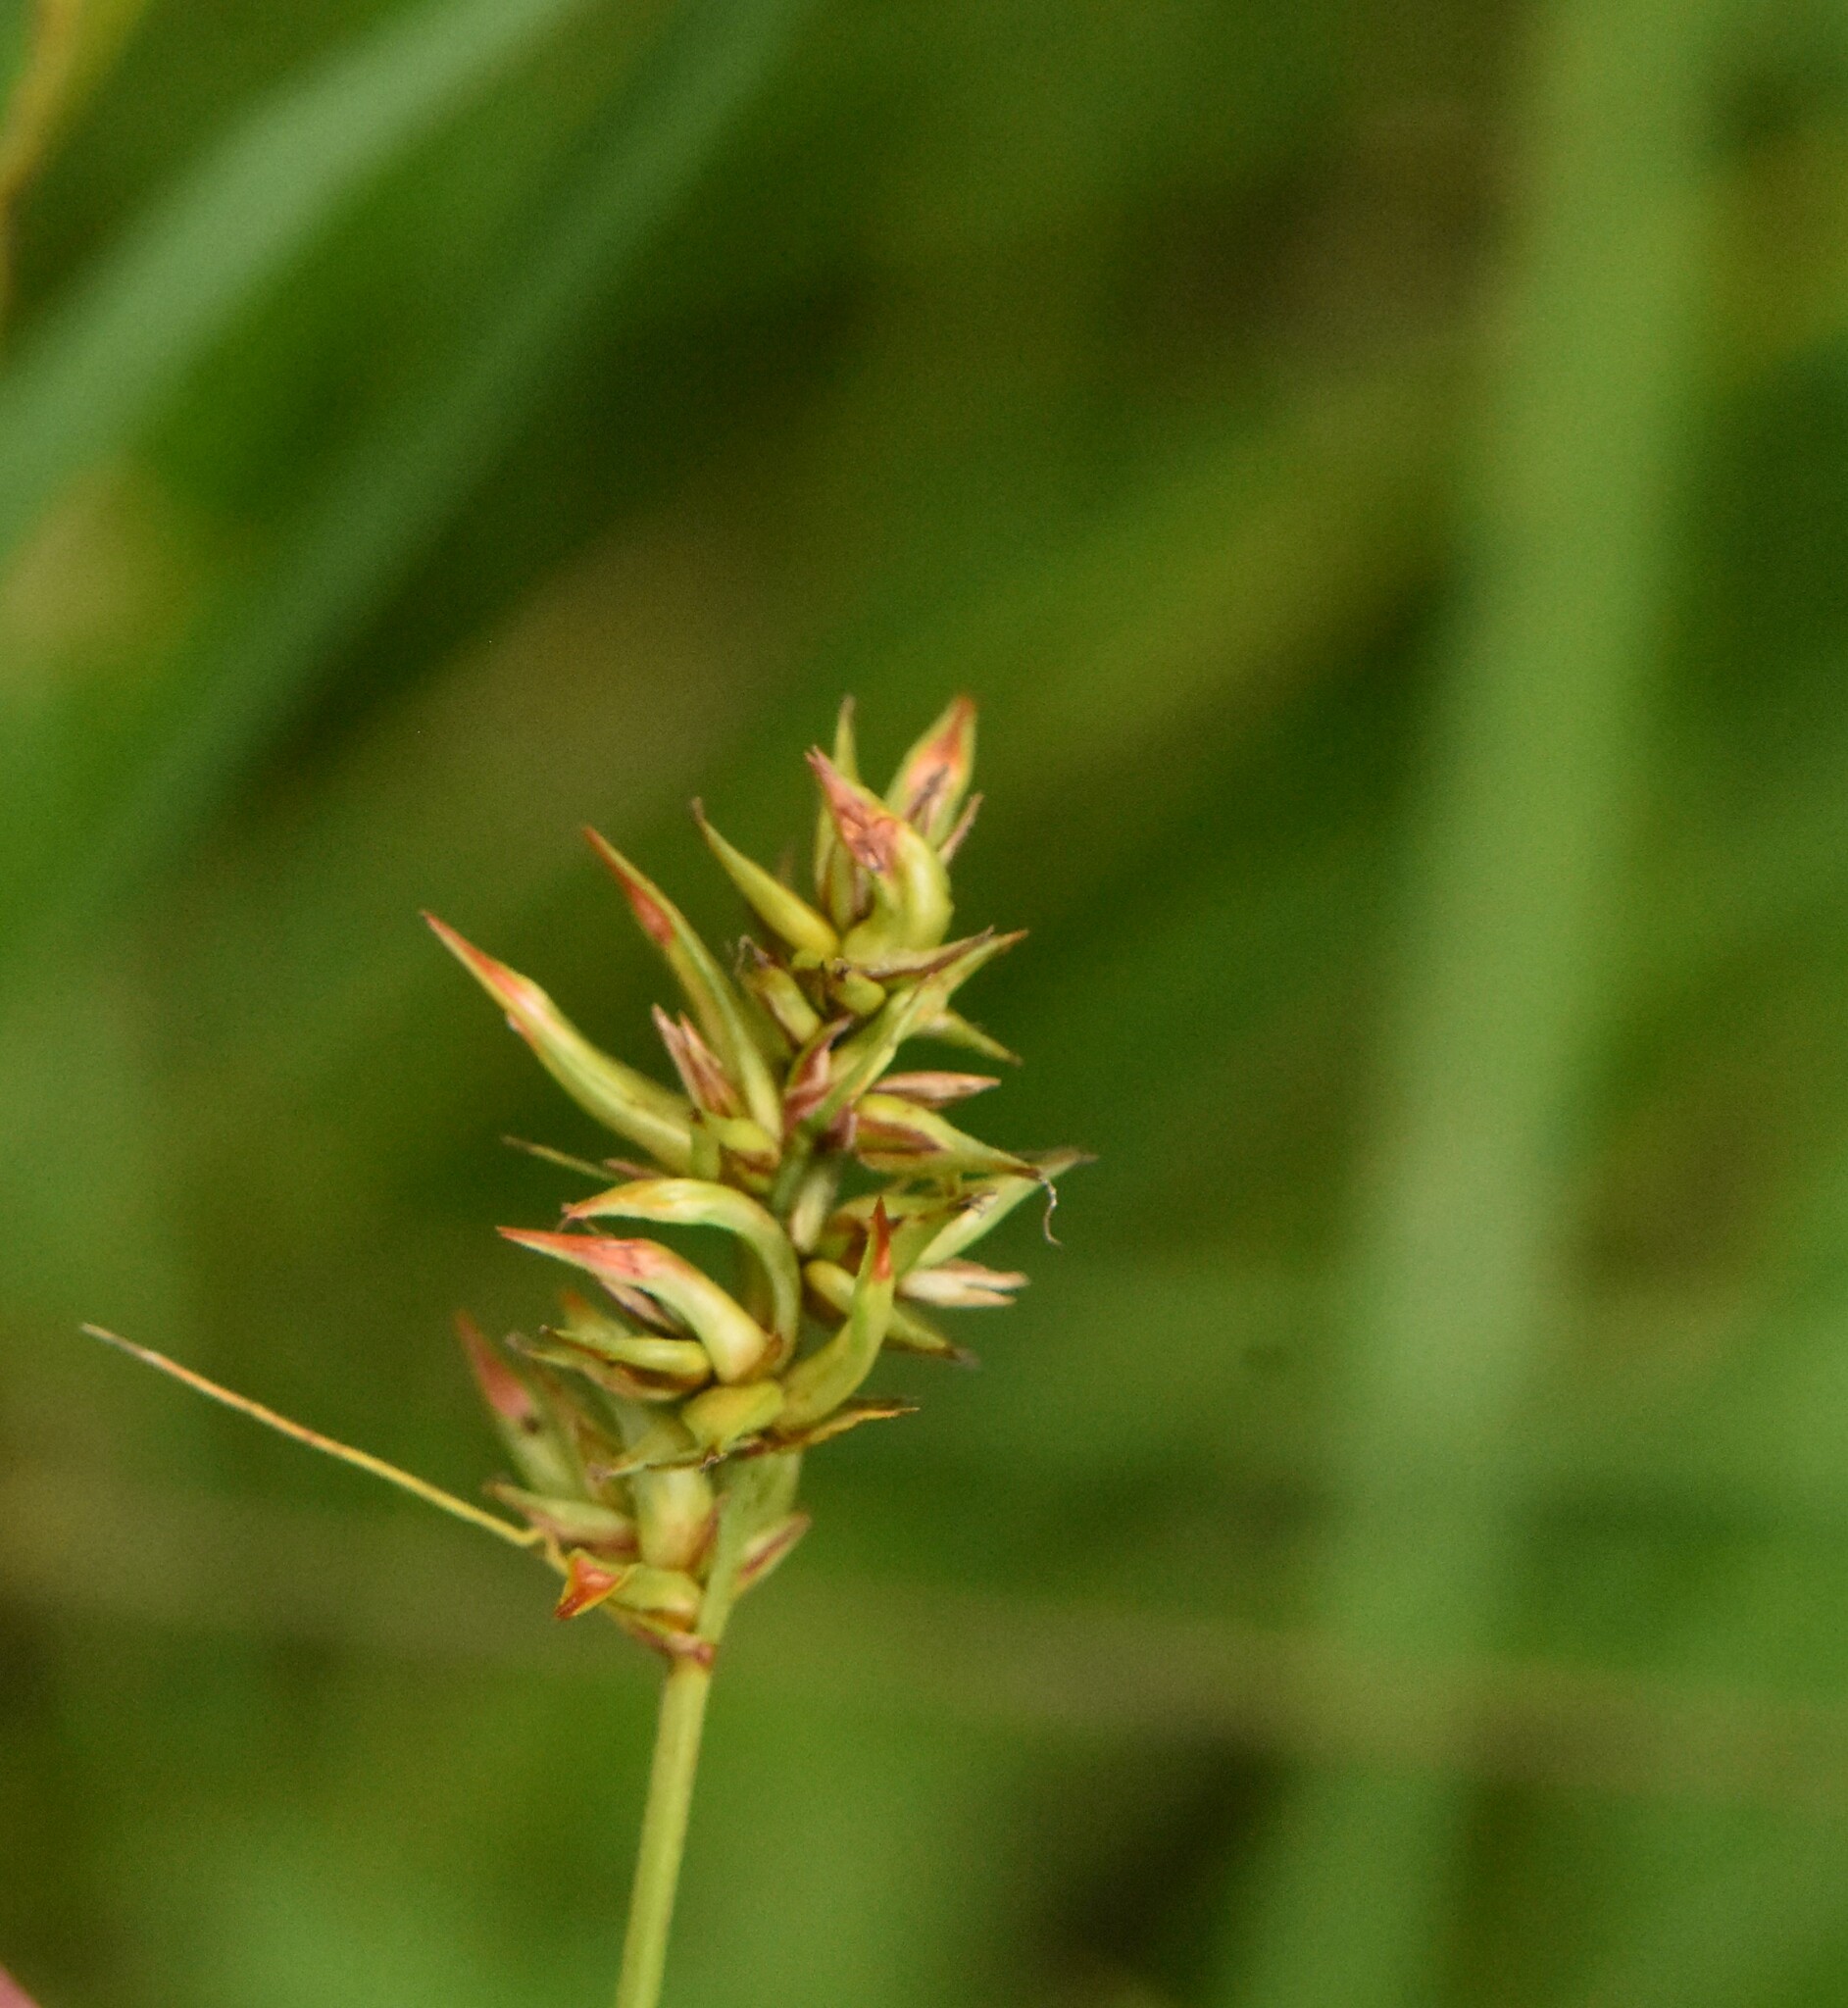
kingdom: Plantae
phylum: Tracheophyta
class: Liliopsida
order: Poales
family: Cyperaceae
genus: Carex
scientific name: Carex spicata
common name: Spiked sedge
